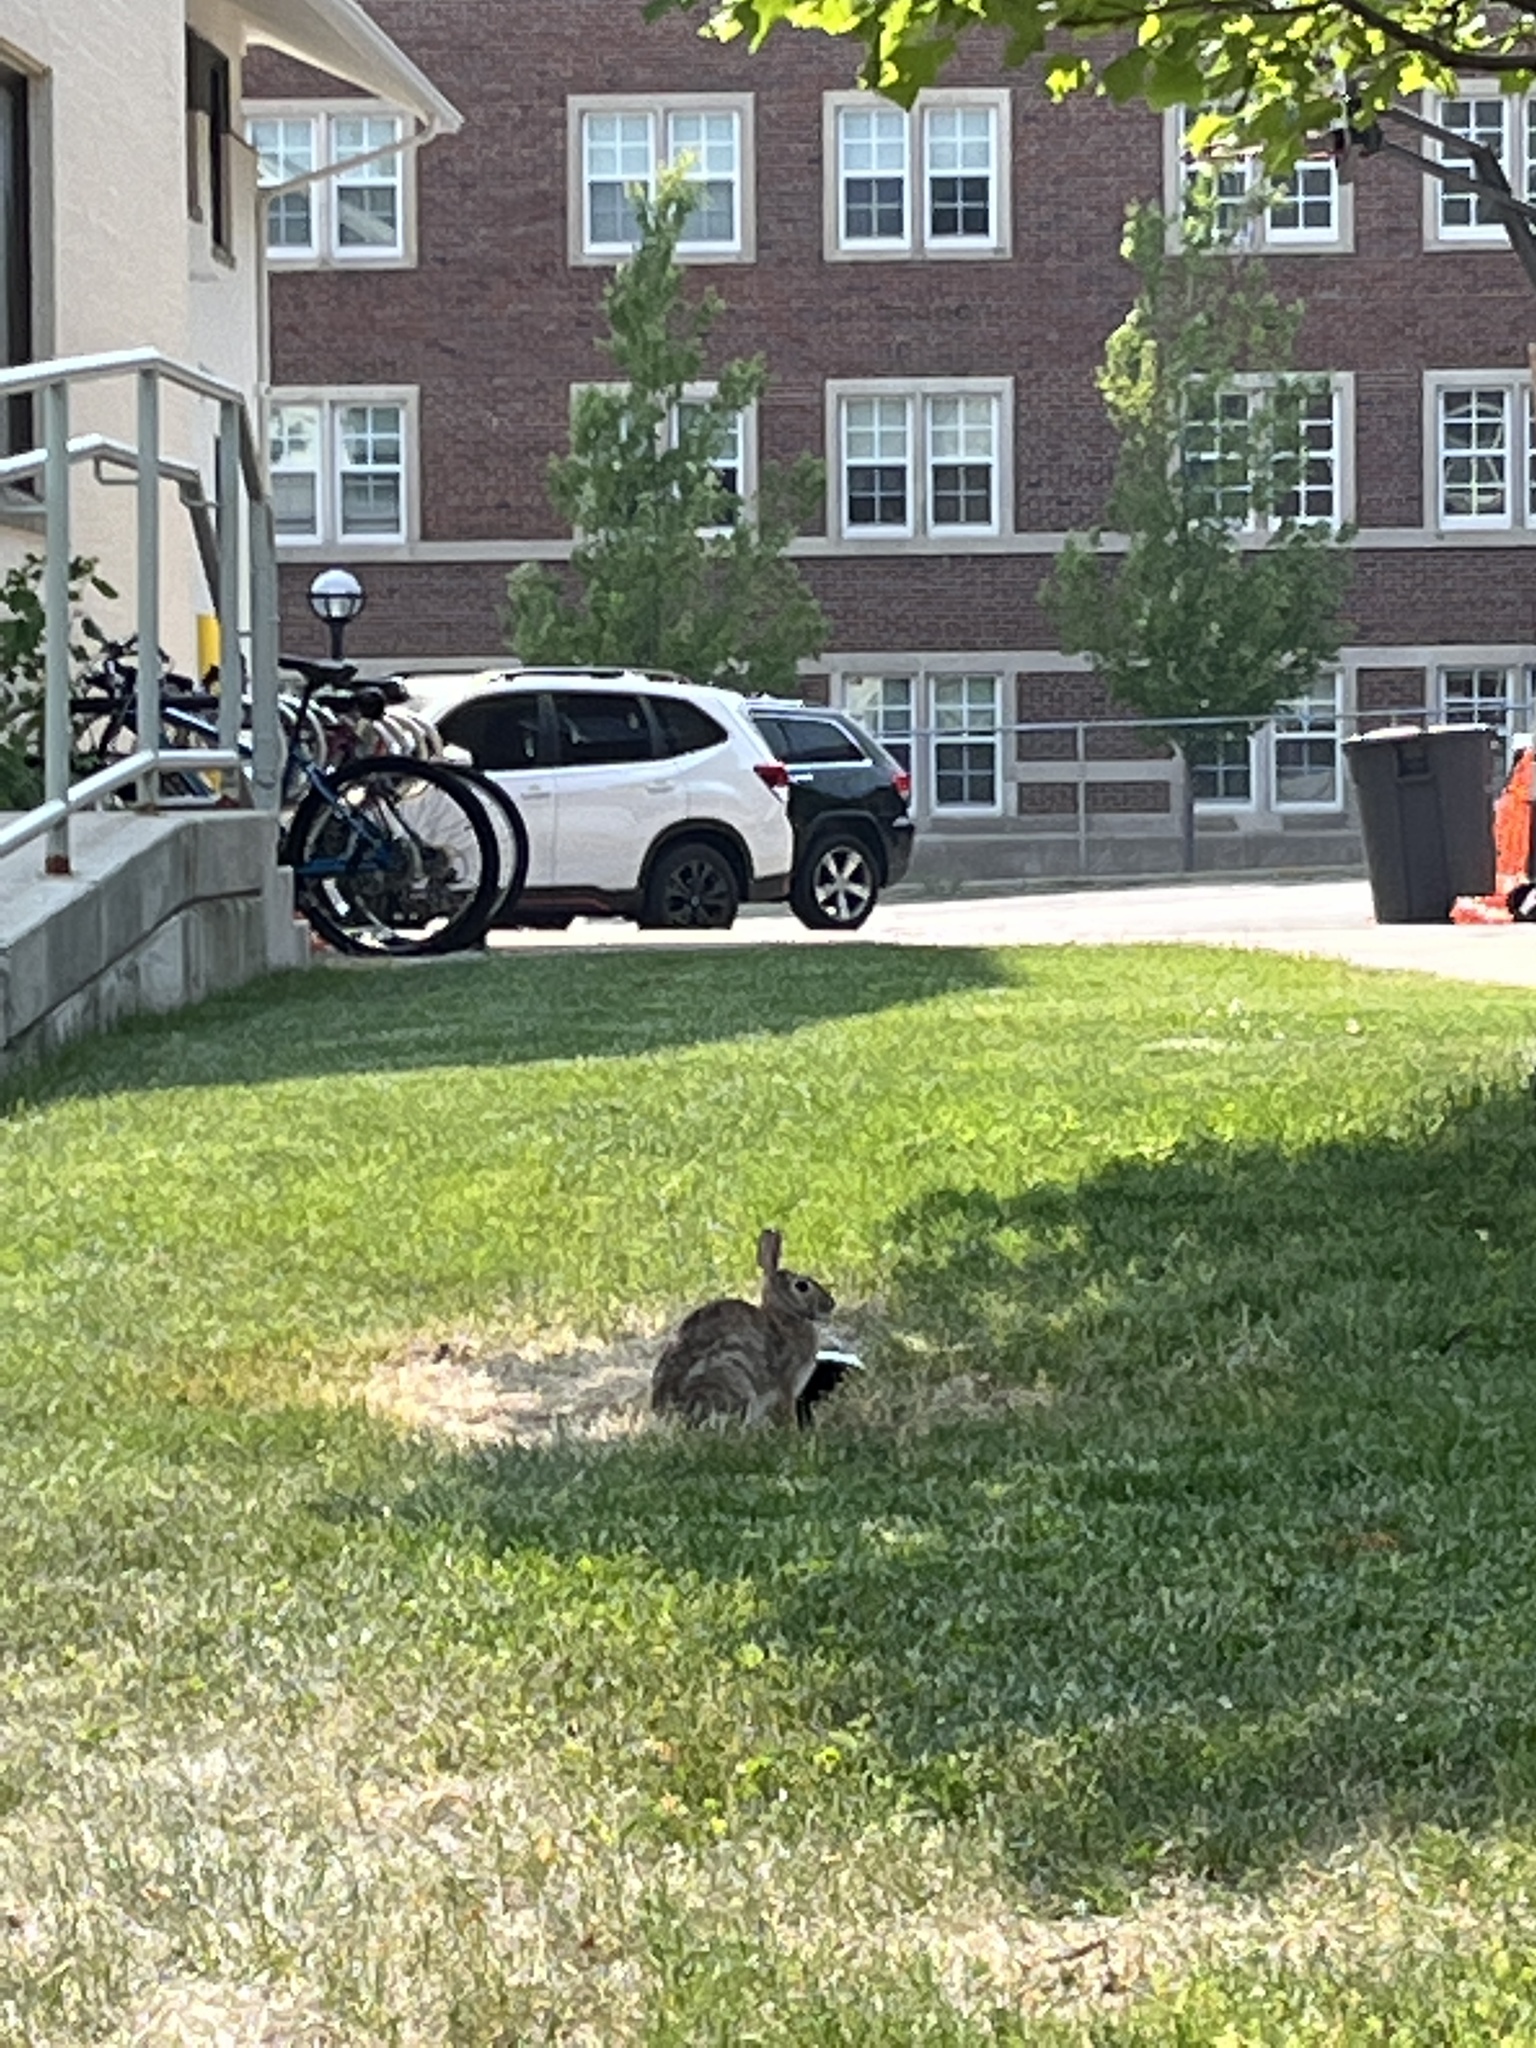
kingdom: Animalia
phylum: Chordata
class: Mammalia
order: Lagomorpha
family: Leporidae
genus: Sylvilagus
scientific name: Sylvilagus floridanus
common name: Eastern cottontail
